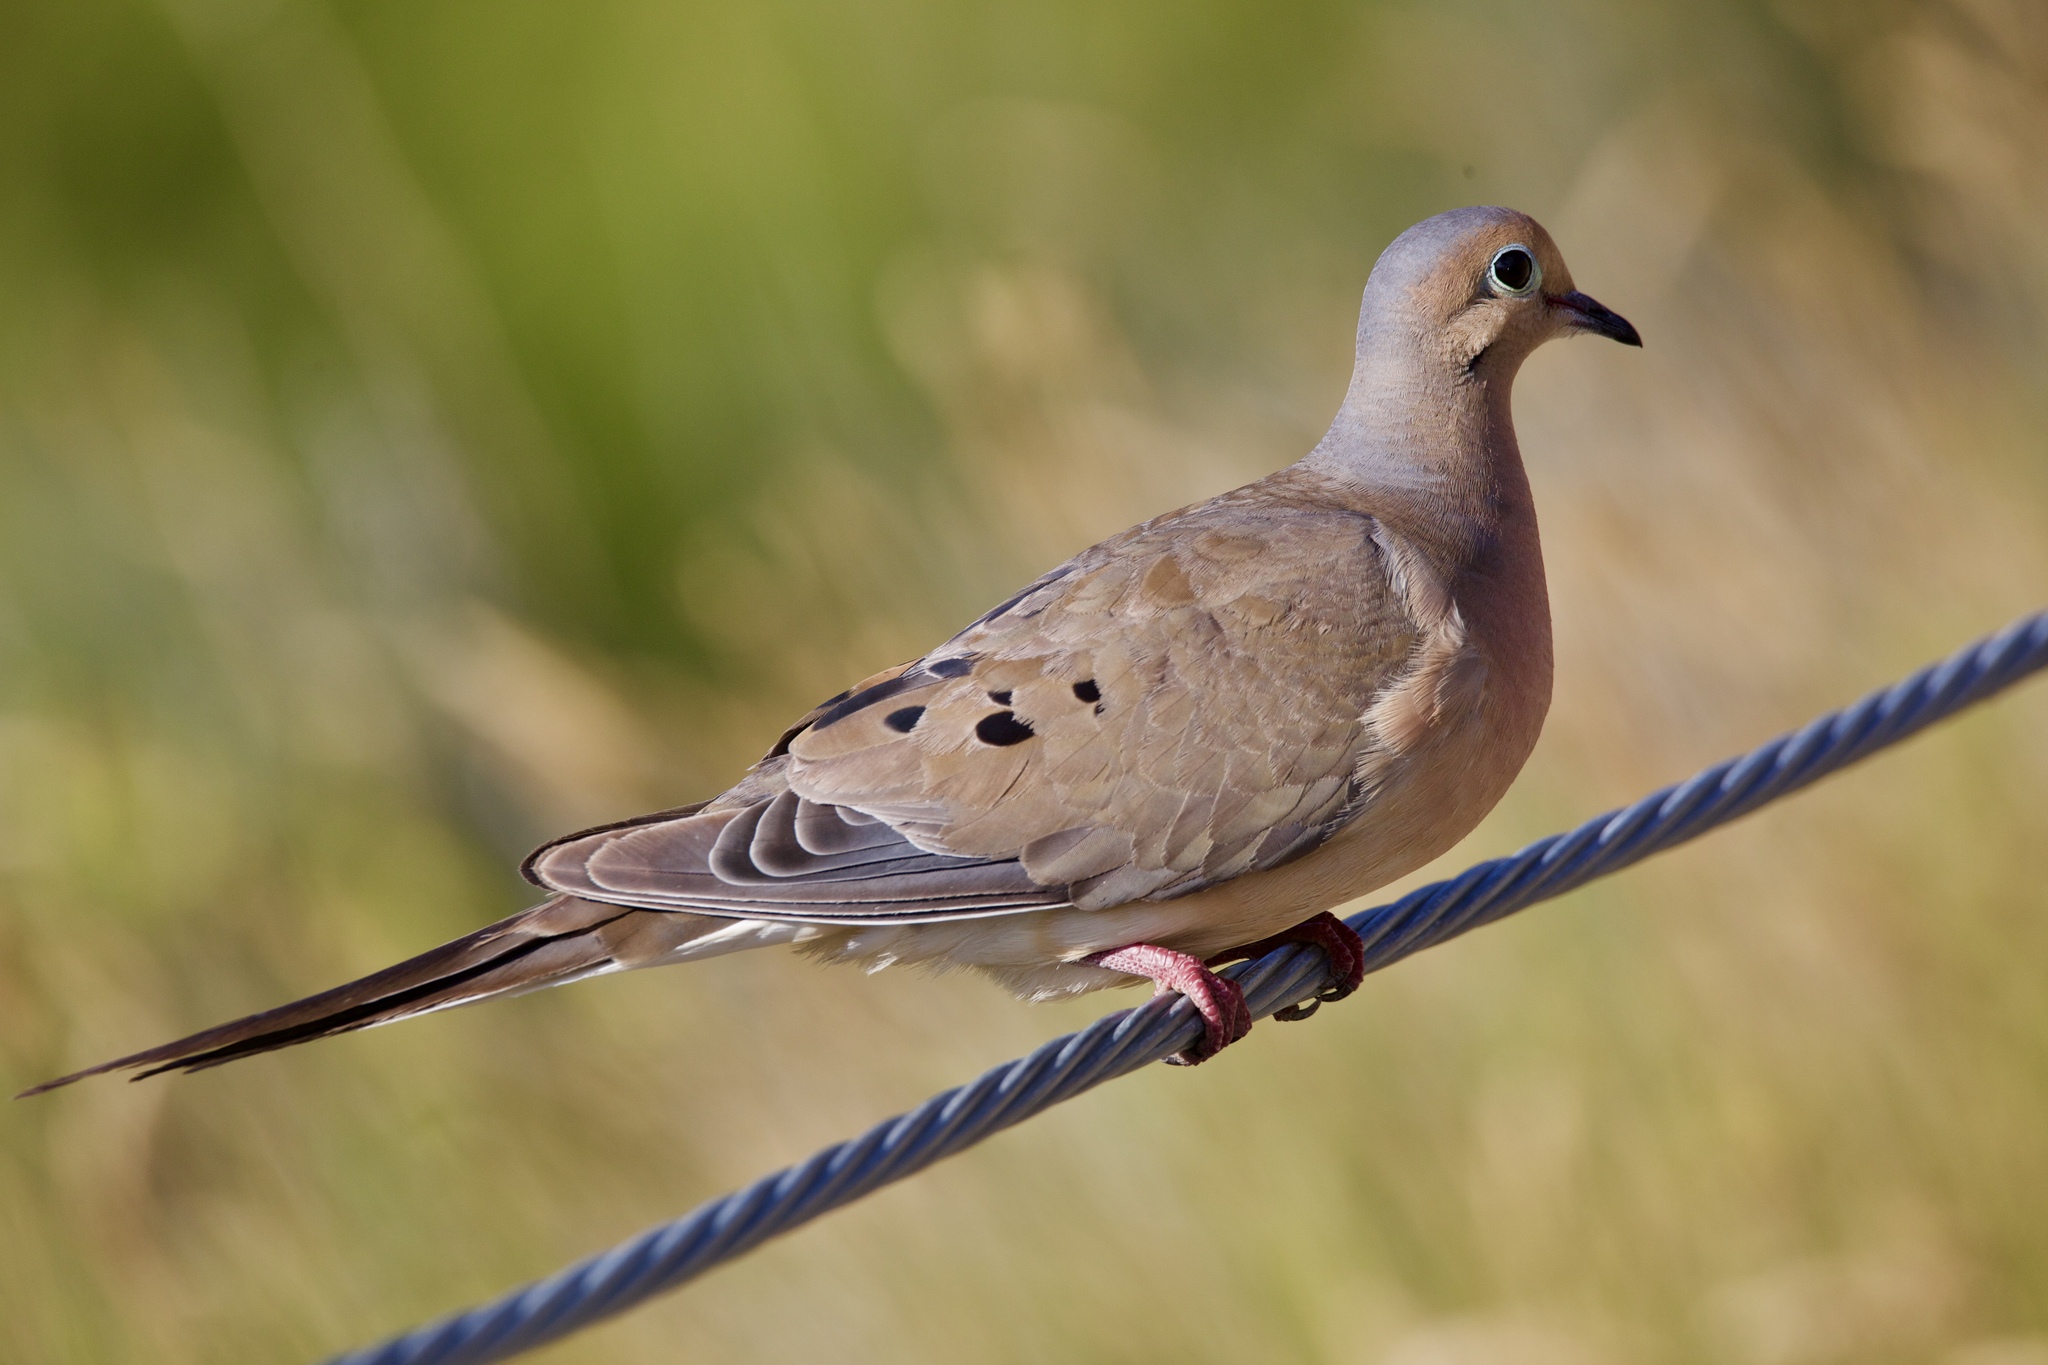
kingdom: Animalia
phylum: Chordata
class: Aves
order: Columbiformes
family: Columbidae
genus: Zenaida
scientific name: Zenaida macroura
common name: Mourning dove
